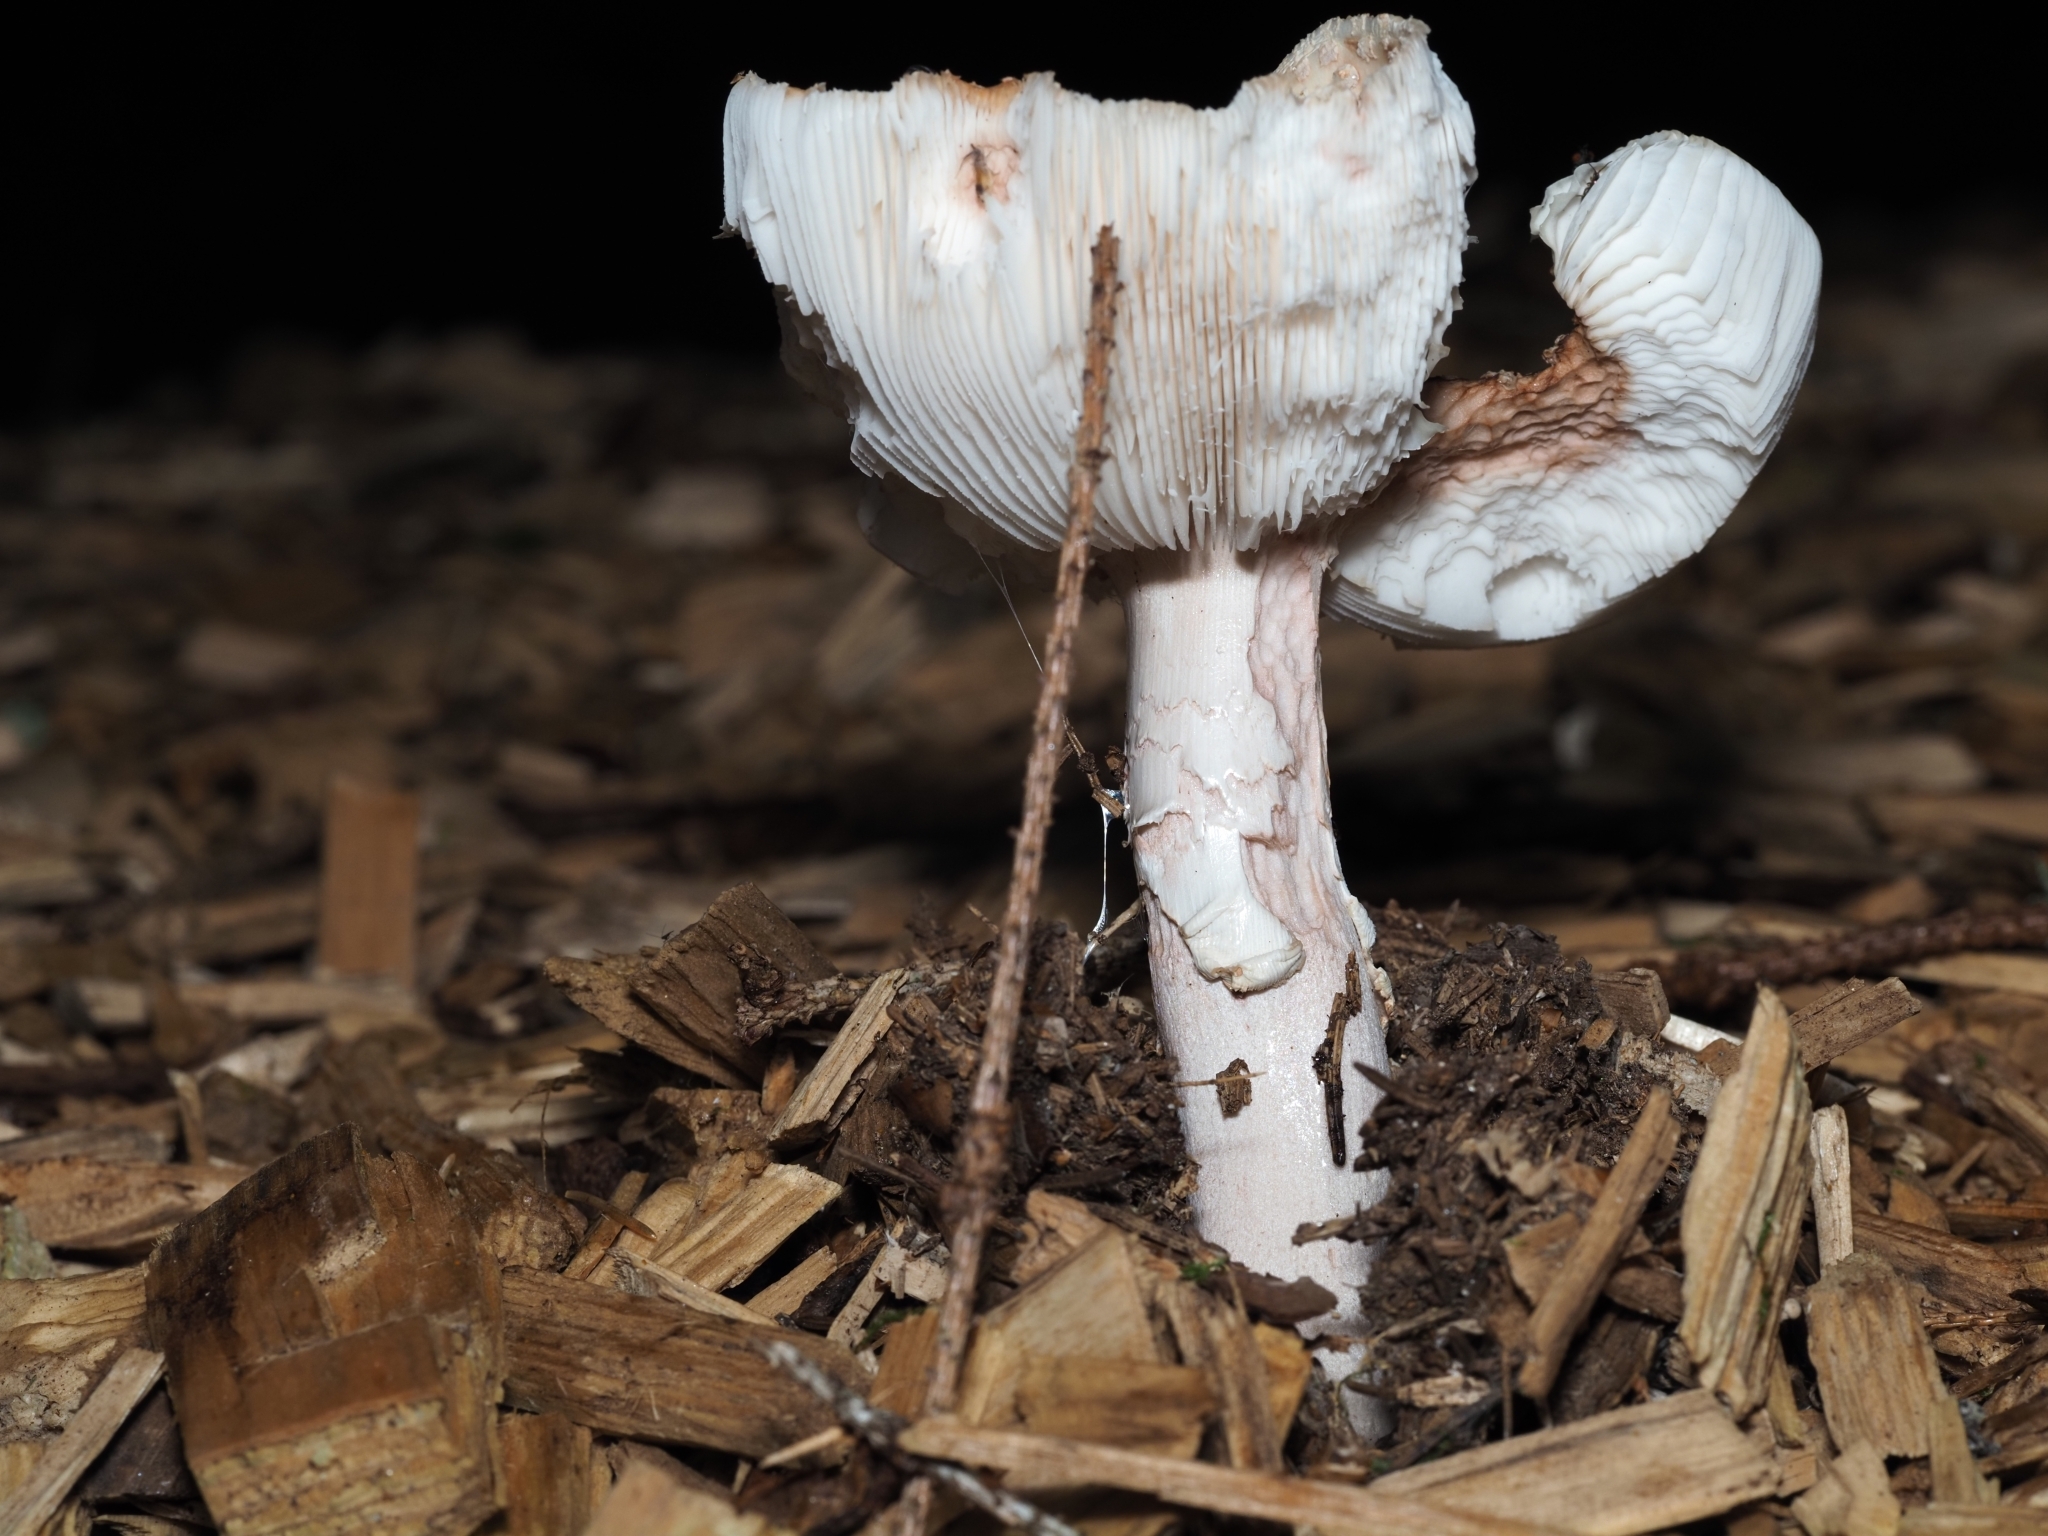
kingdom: Fungi
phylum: Basidiomycota
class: Agaricomycetes
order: Agaricales
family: Amanitaceae
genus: Amanita
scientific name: Amanita rubescens
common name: Blusher
